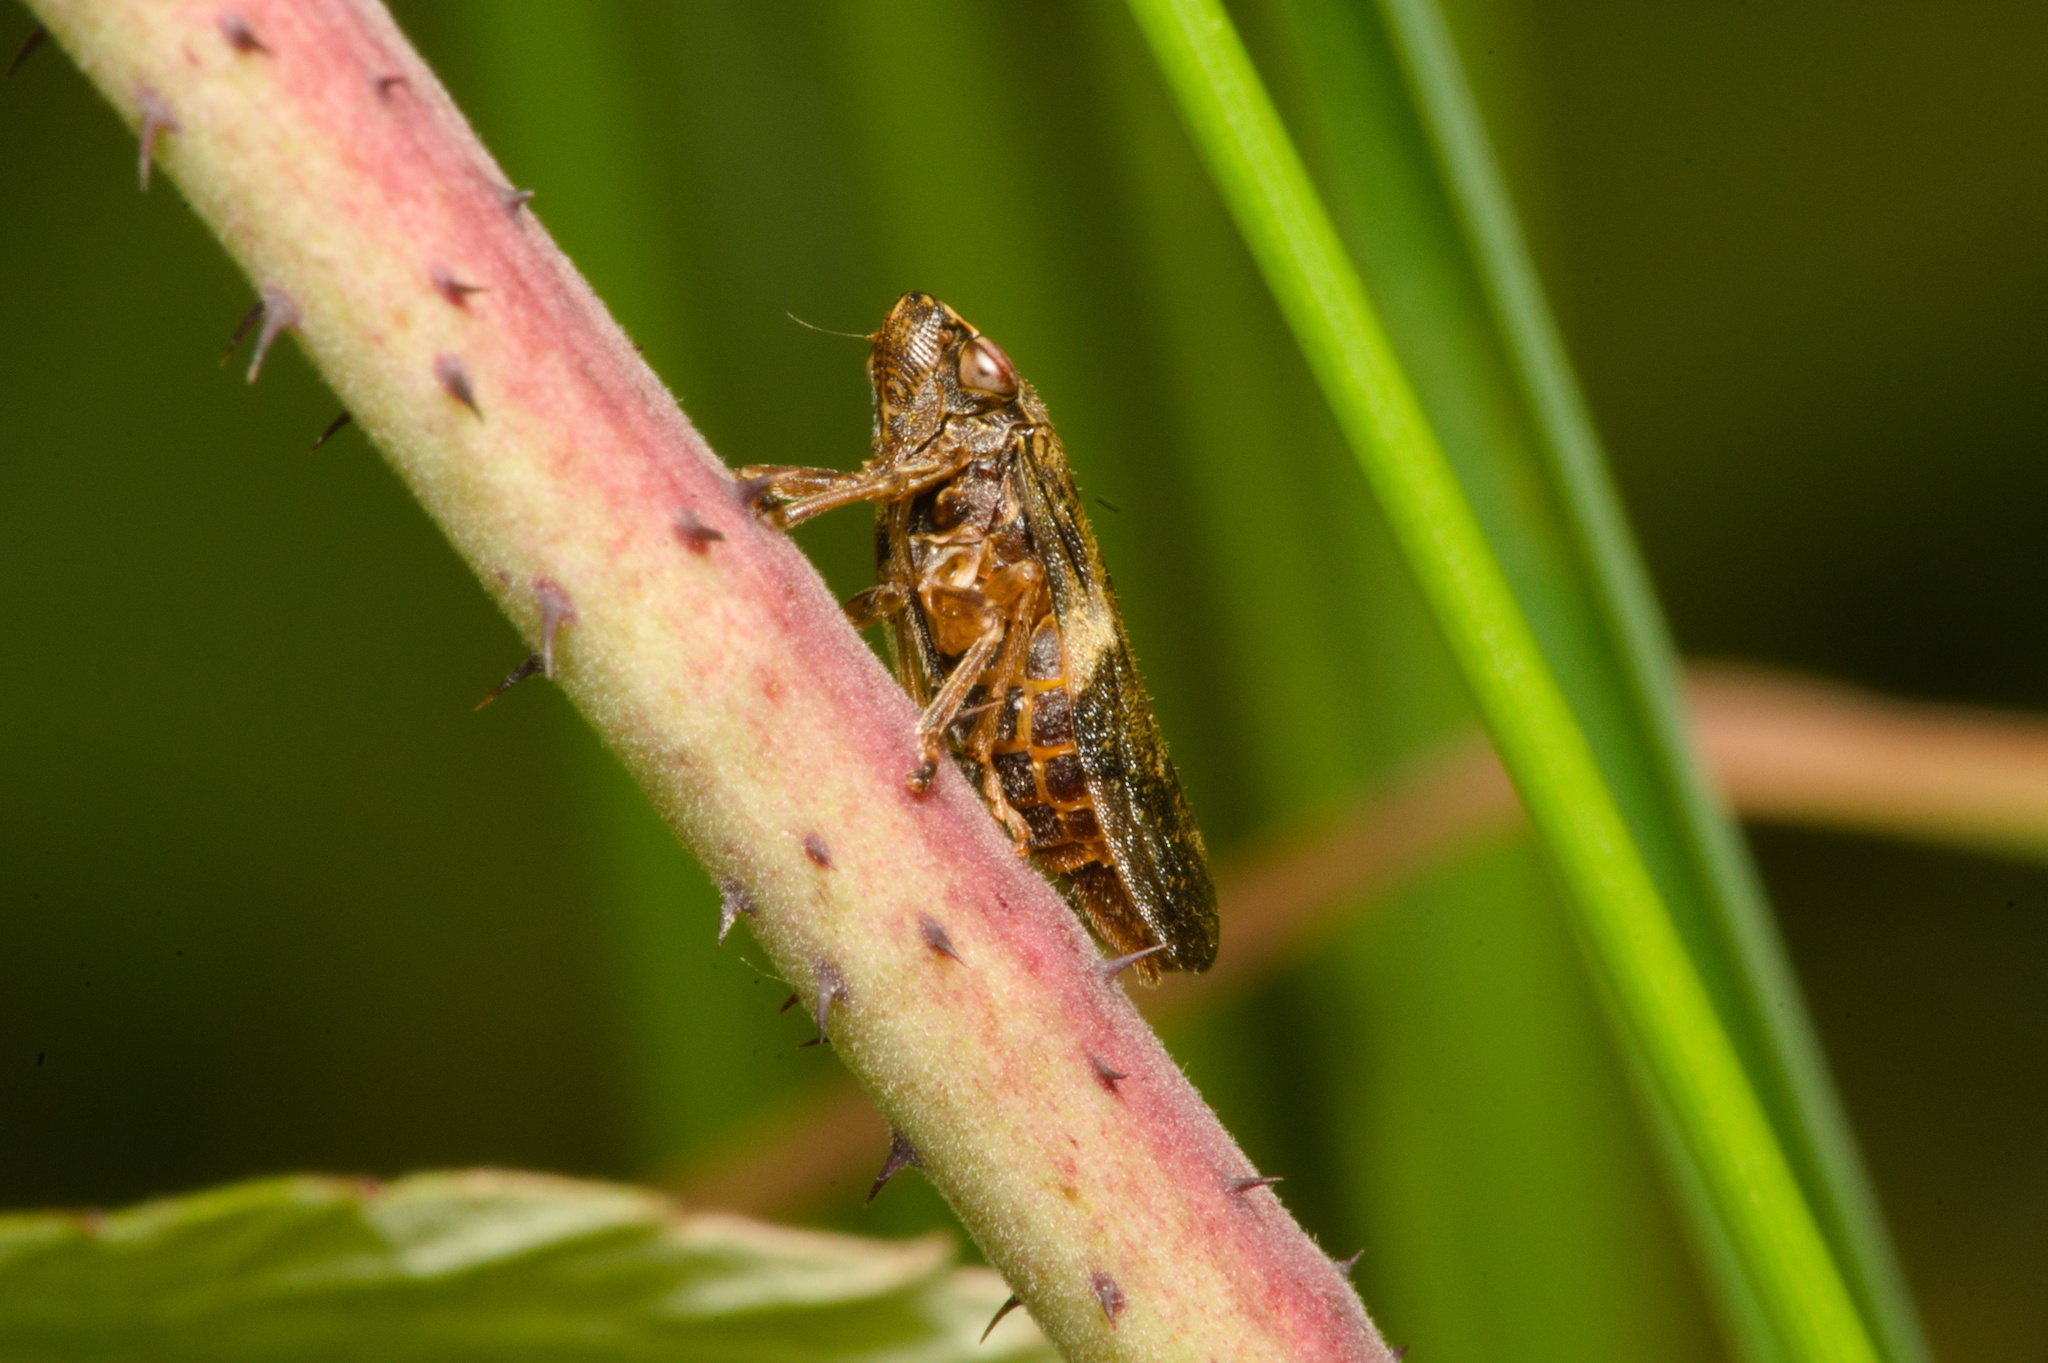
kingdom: Animalia
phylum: Arthropoda
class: Insecta
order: Hemiptera
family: Aphrophoridae
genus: Aphrophora
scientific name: Aphrophora alni
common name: European alder spittlebug
